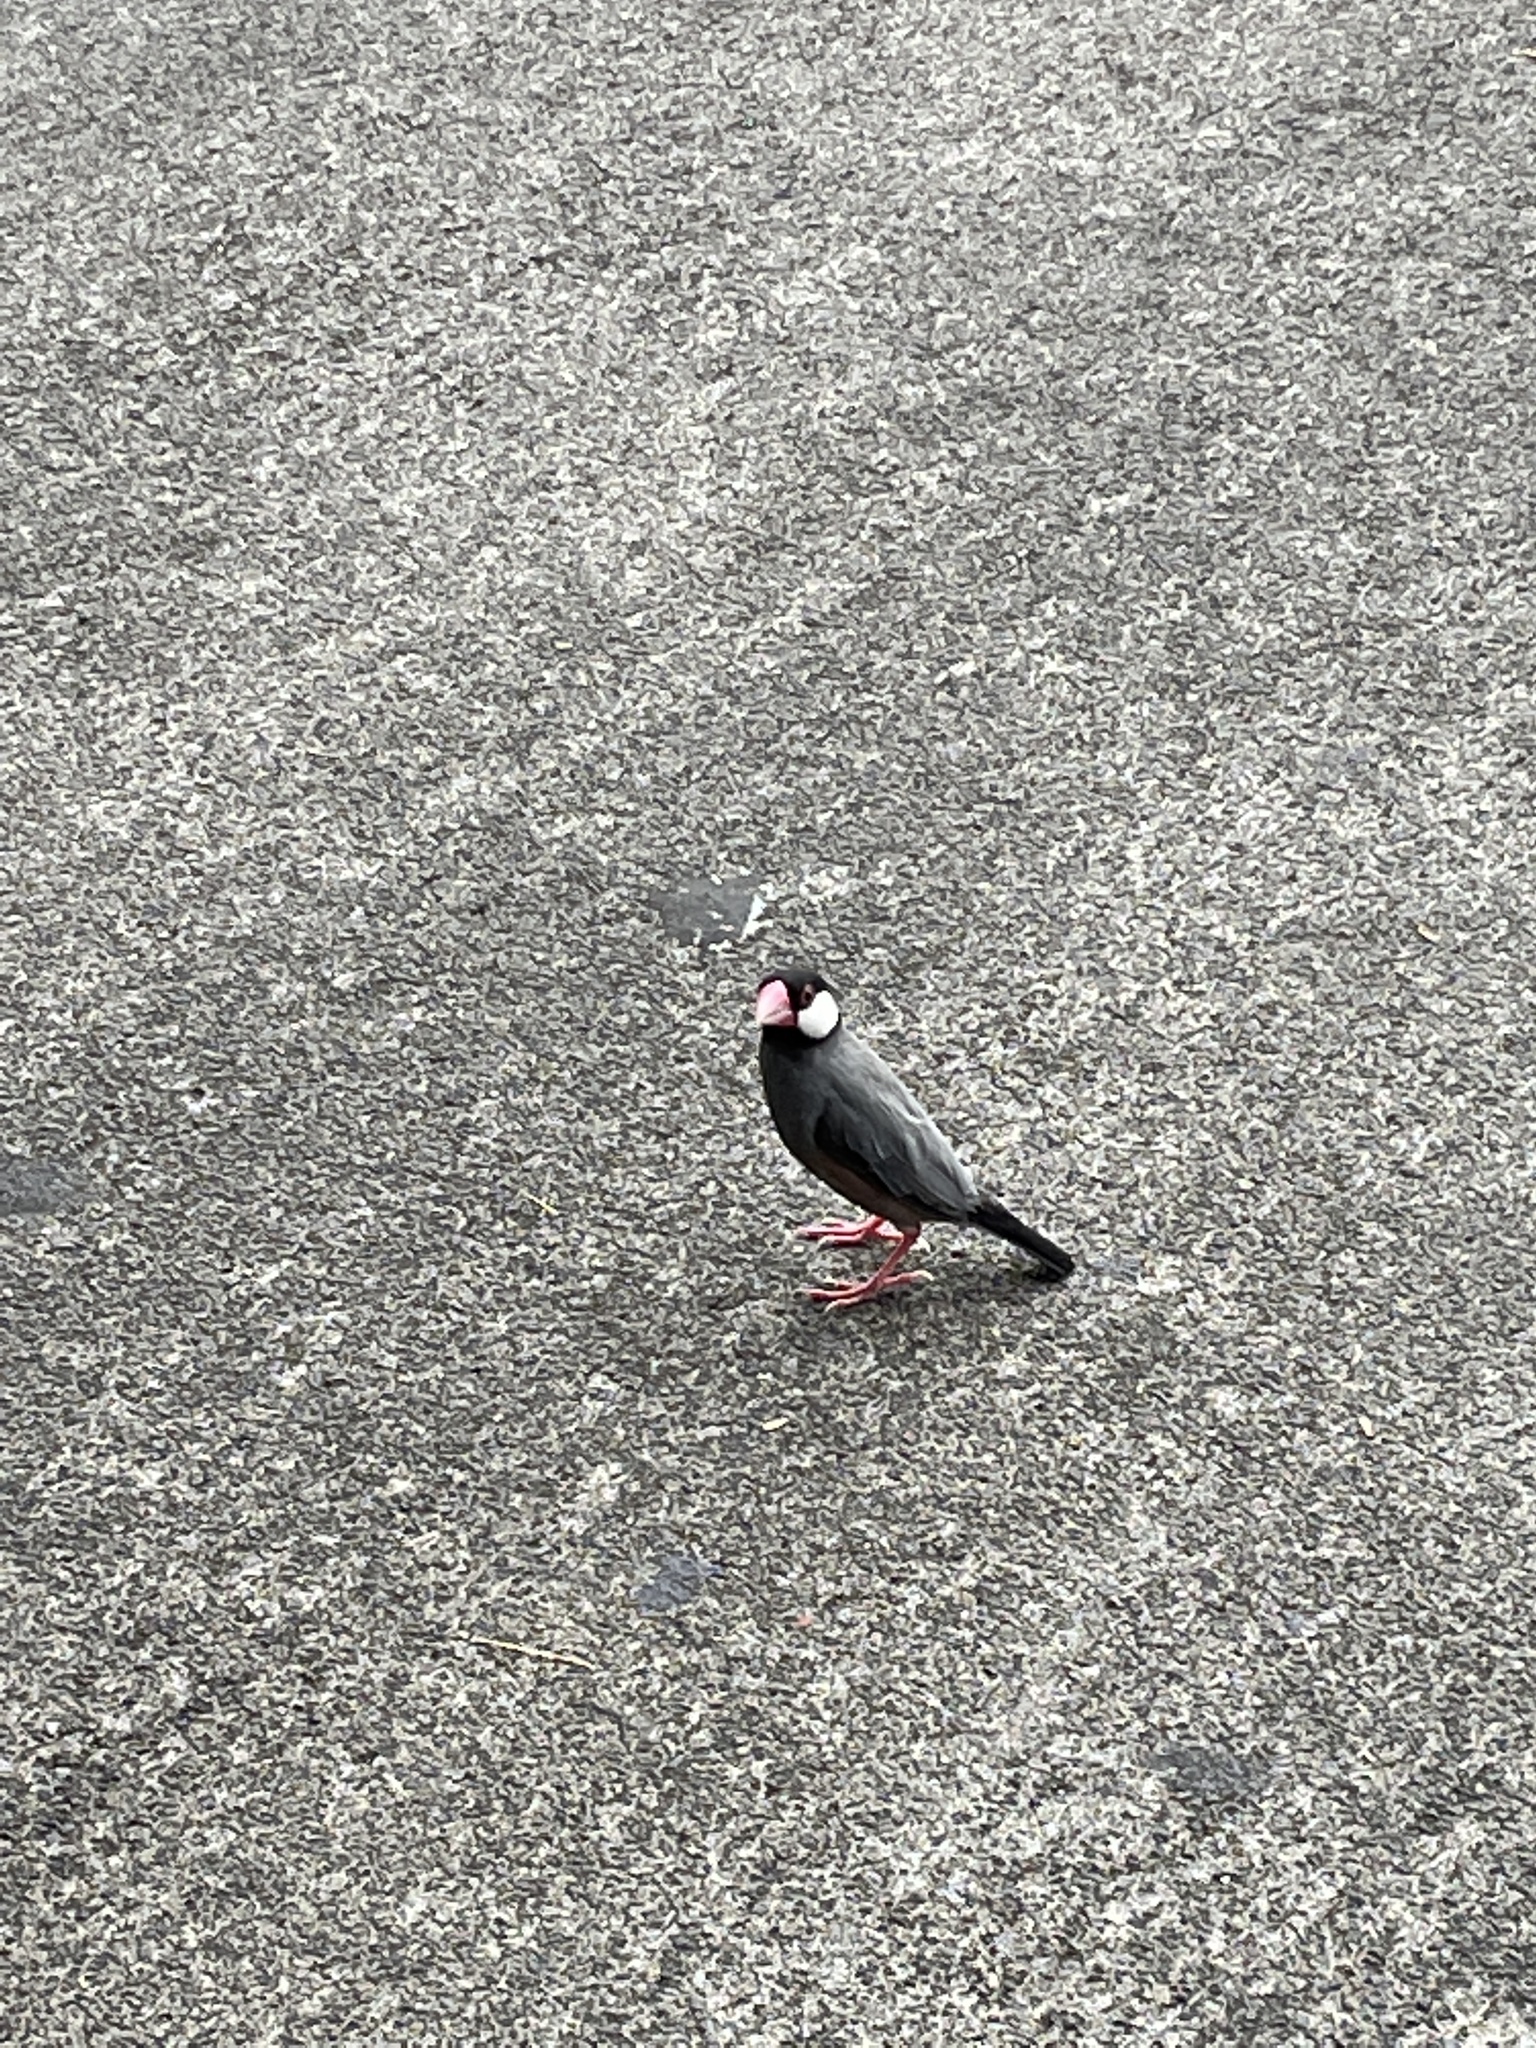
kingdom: Animalia
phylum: Chordata
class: Aves
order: Passeriformes
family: Estrildidae
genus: Lonchura
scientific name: Lonchura oryzivora
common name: Java sparrow
